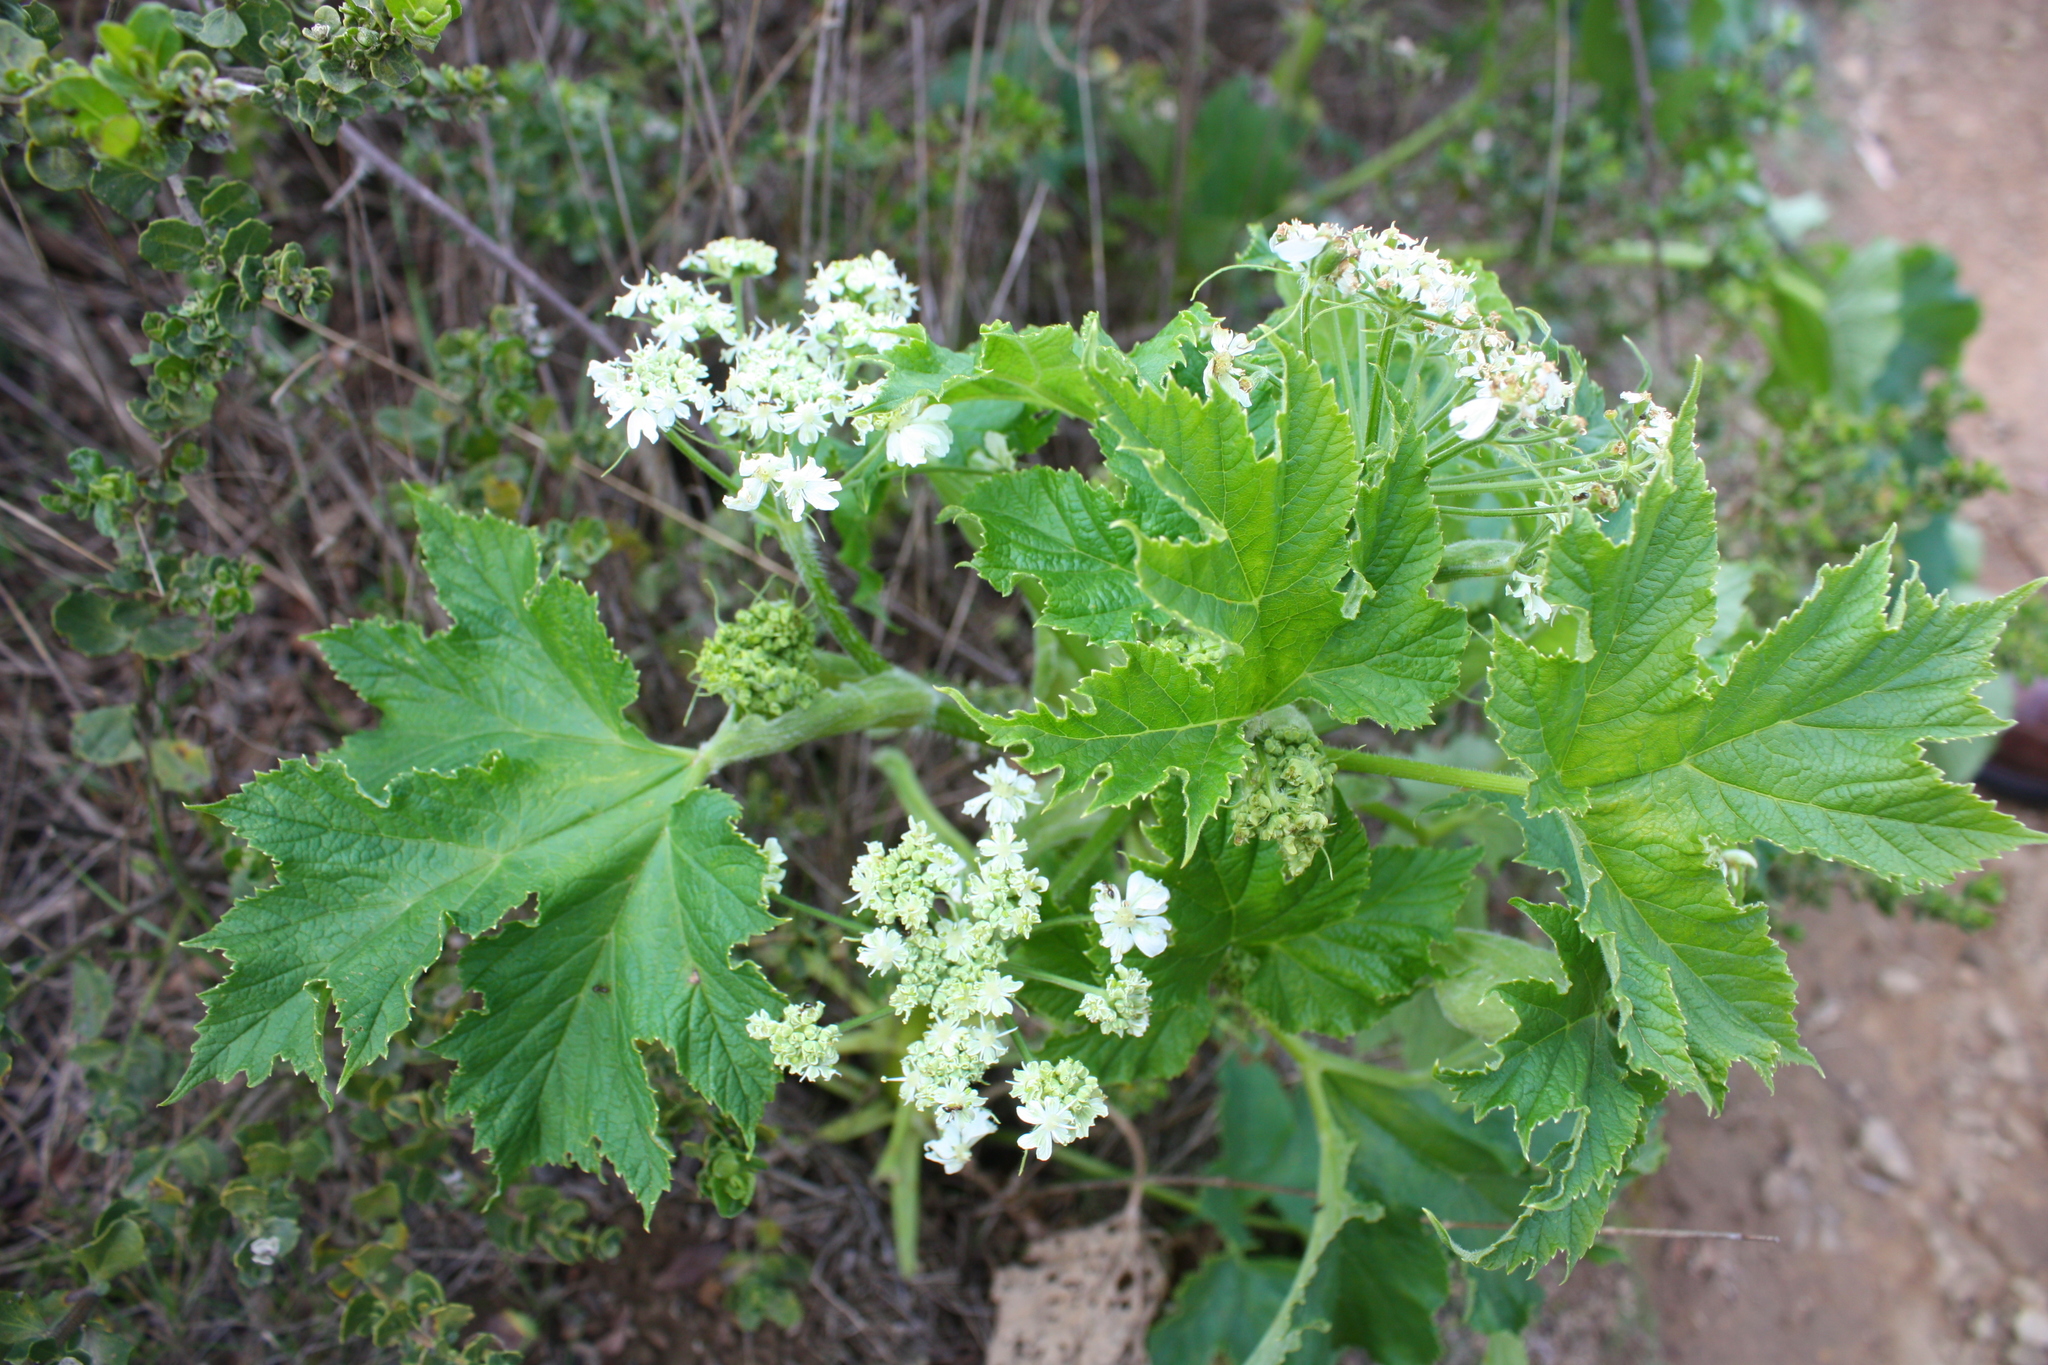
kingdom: Plantae
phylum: Tracheophyta
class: Magnoliopsida
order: Apiales
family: Apiaceae
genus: Heracleum
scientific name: Heracleum maximum
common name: American cow parsnip
